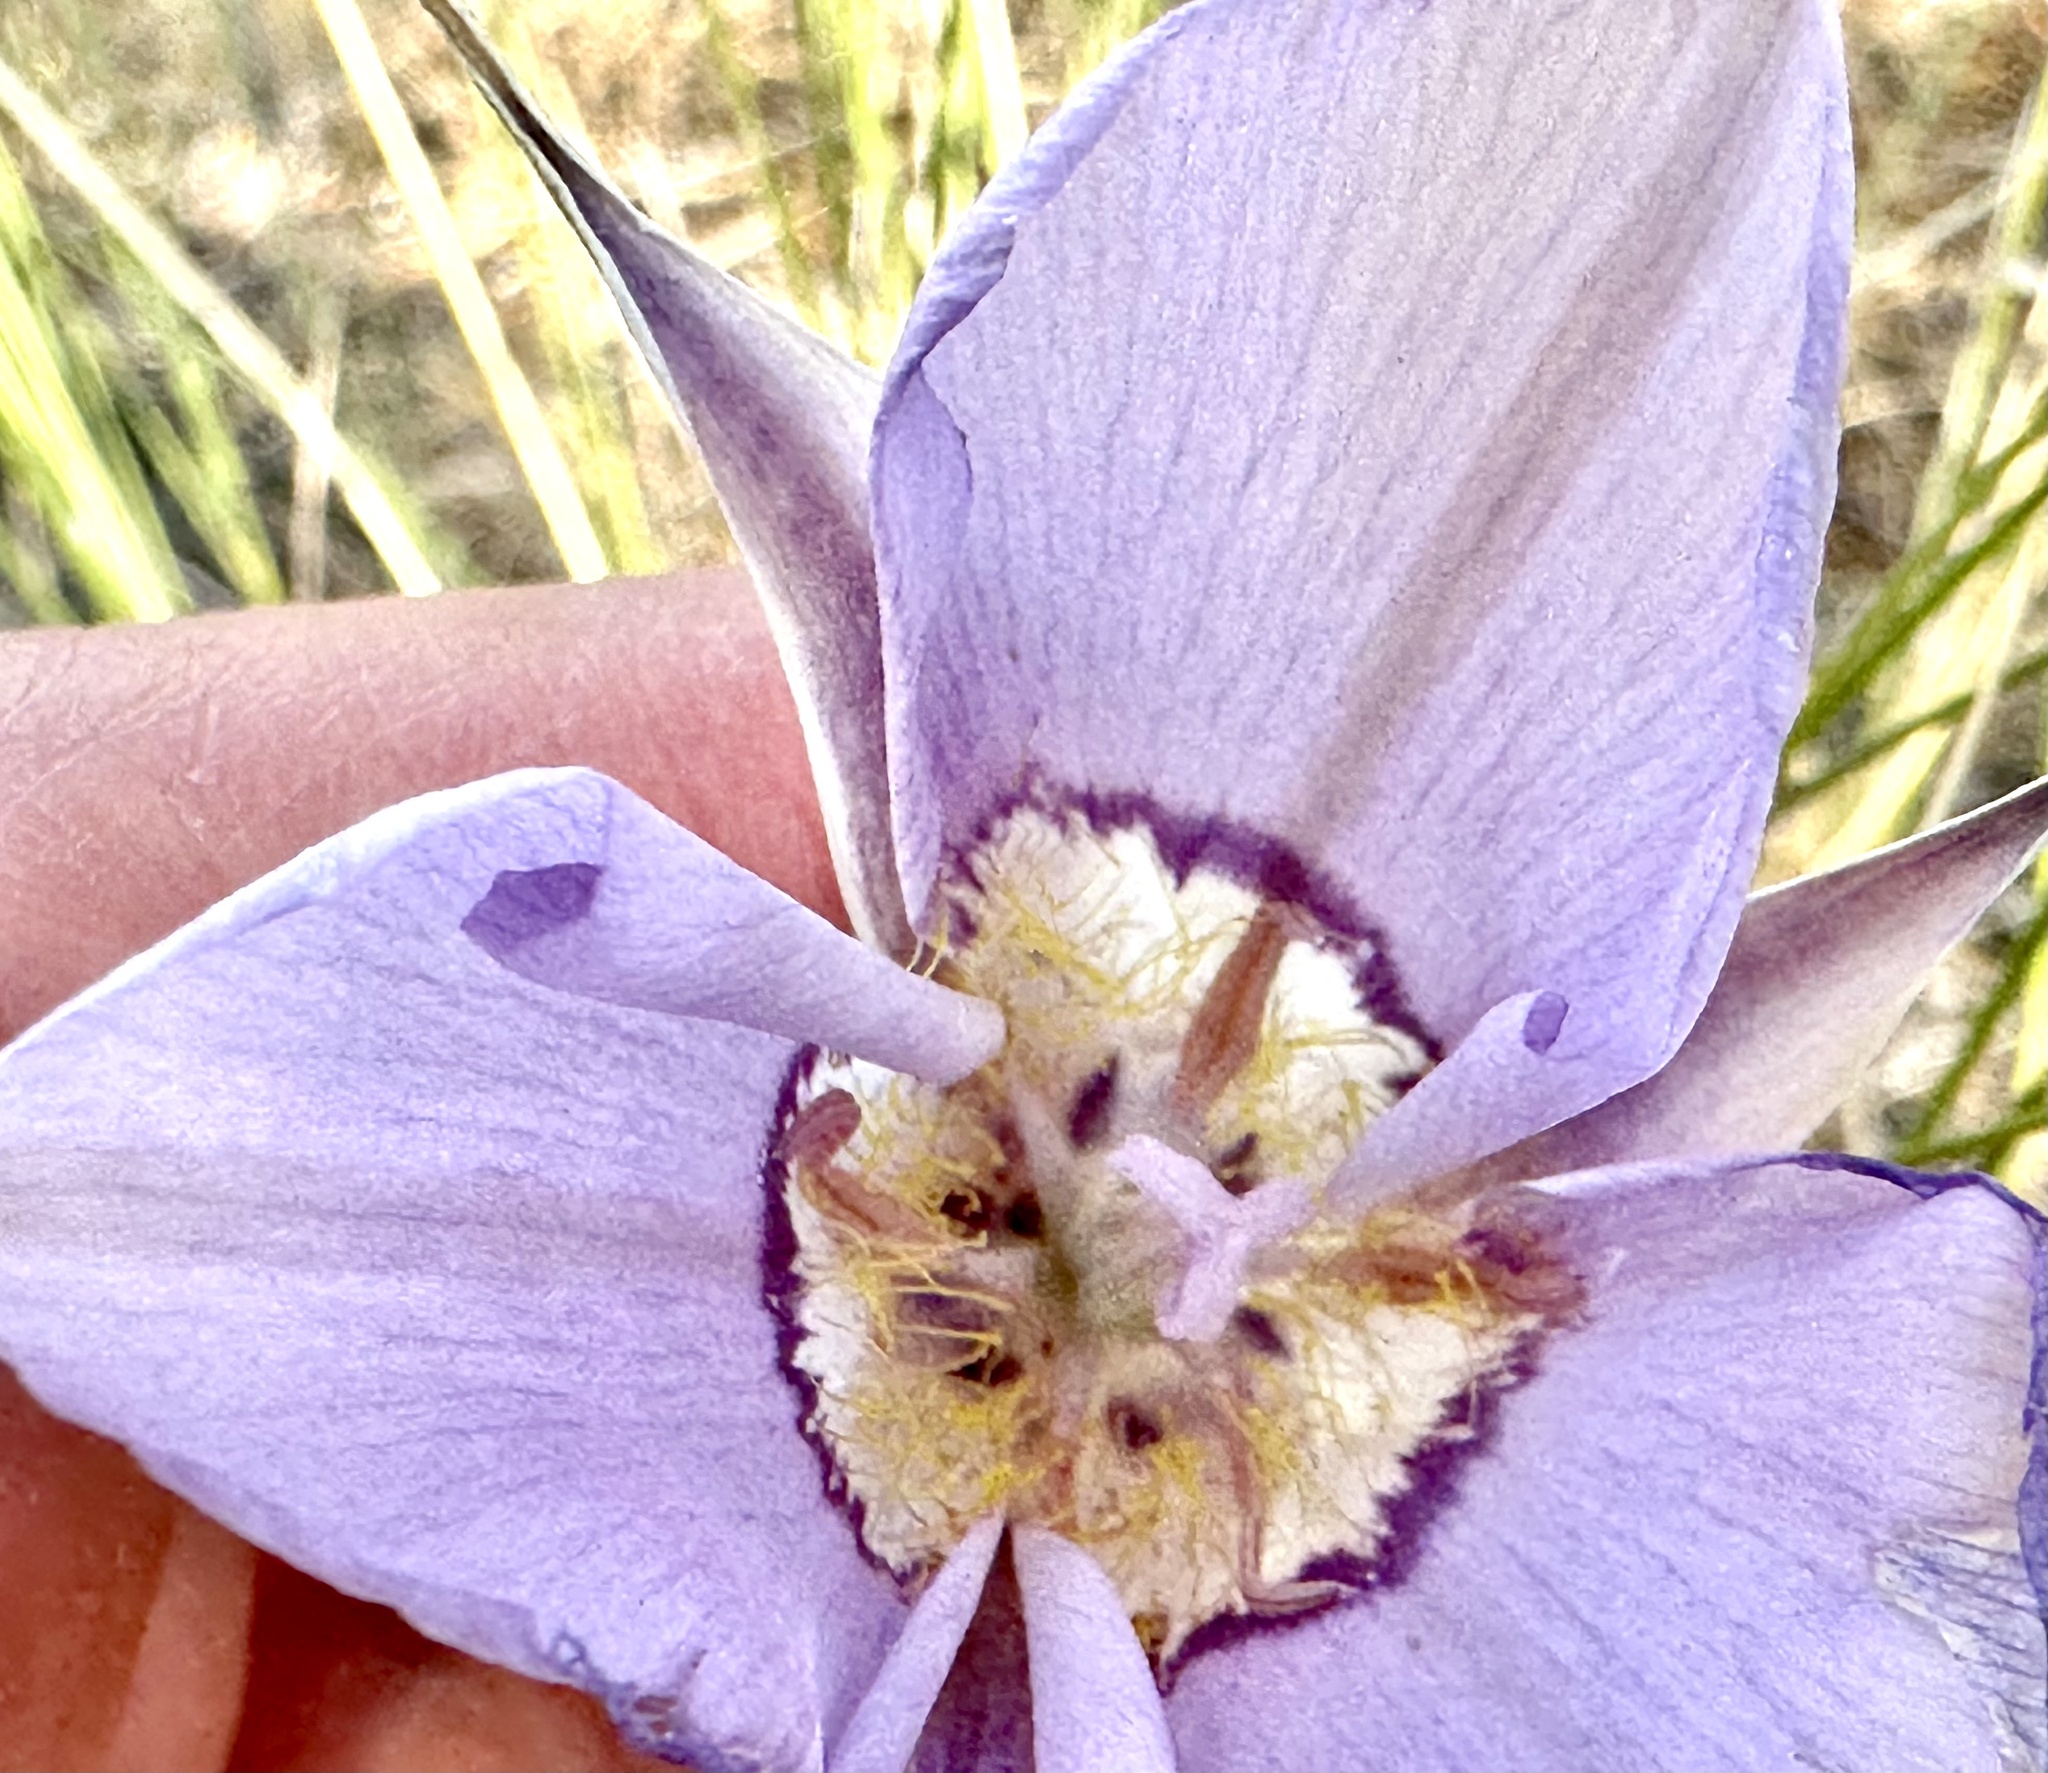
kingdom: Plantae
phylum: Tracheophyta
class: Liliopsida
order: Liliales
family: Liliaceae
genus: Calochortus
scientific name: Calochortus macrocarpus
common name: Green-band mariposa lily
